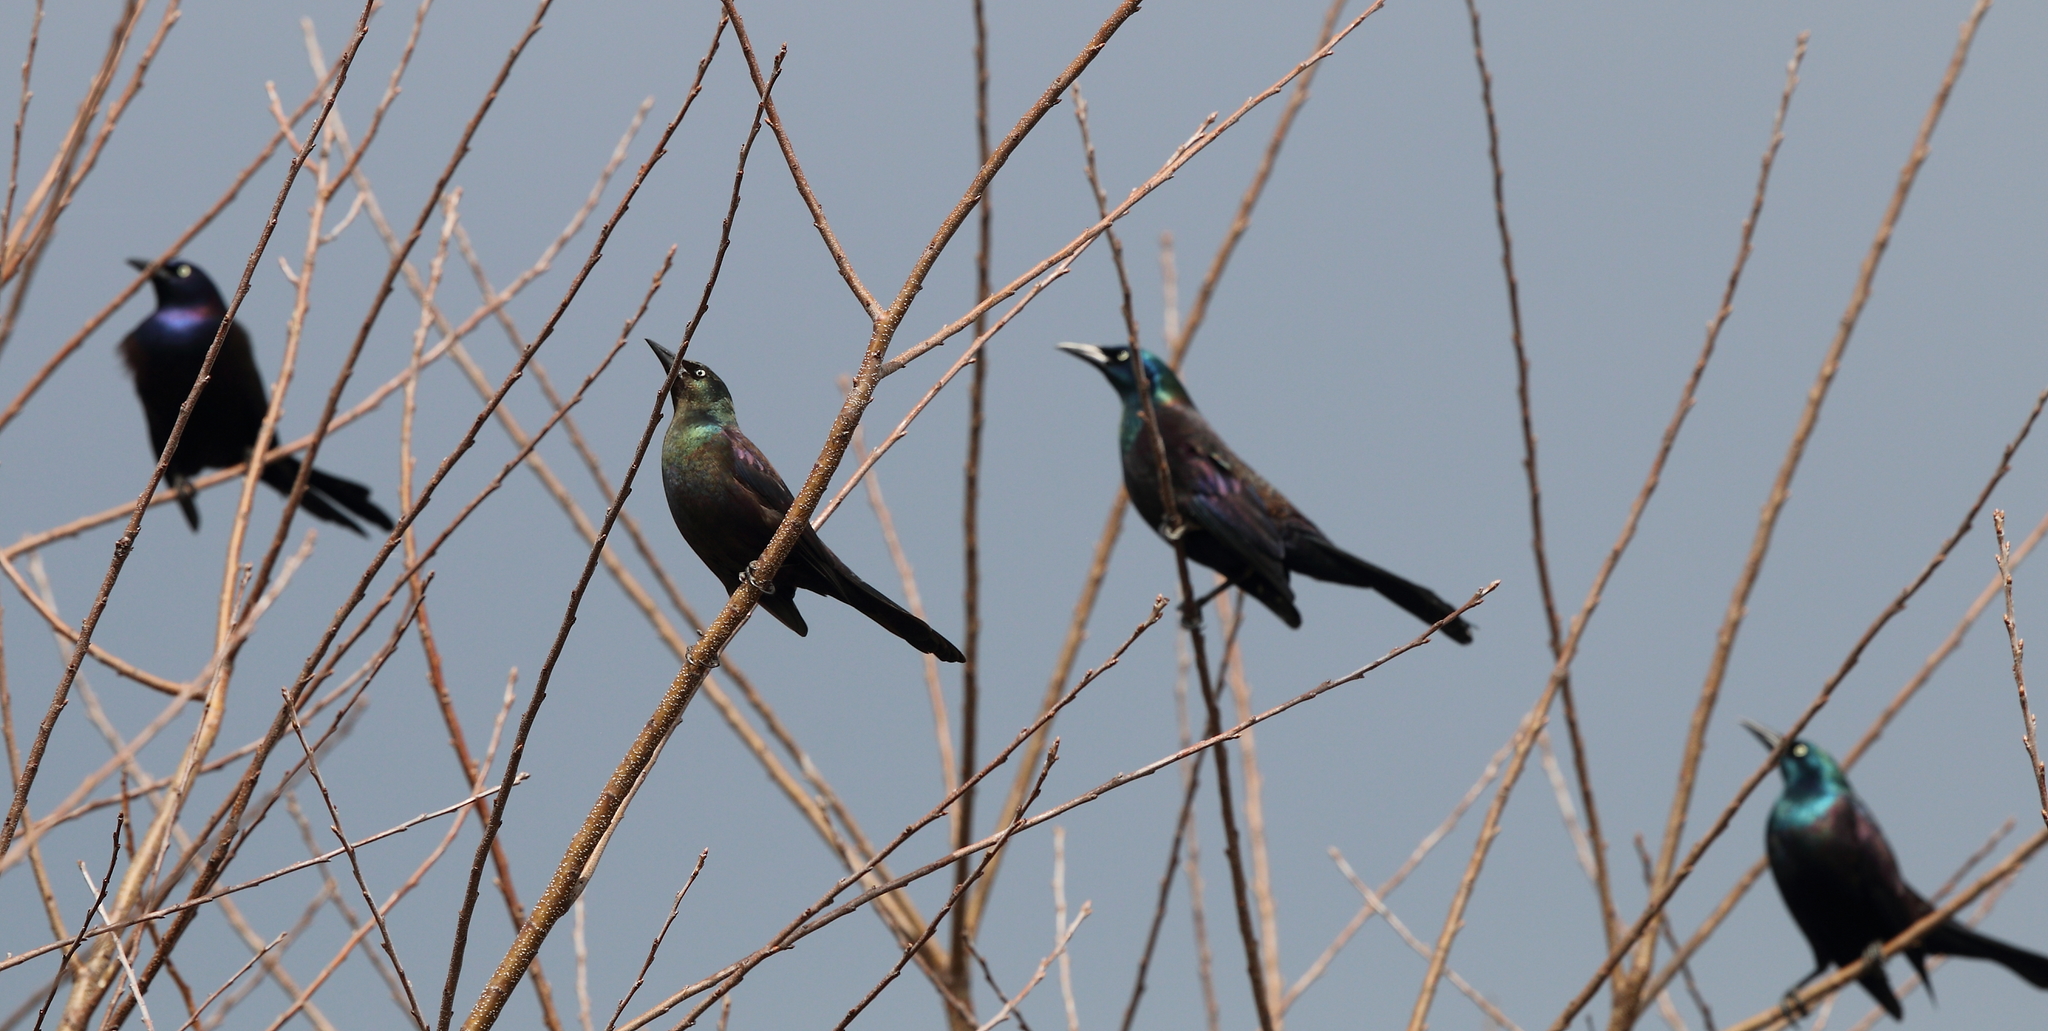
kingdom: Animalia
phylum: Chordata
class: Aves
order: Passeriformes
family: Icteridae
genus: Quiscalus
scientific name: Quiscalus quiscula
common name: Common grackle
